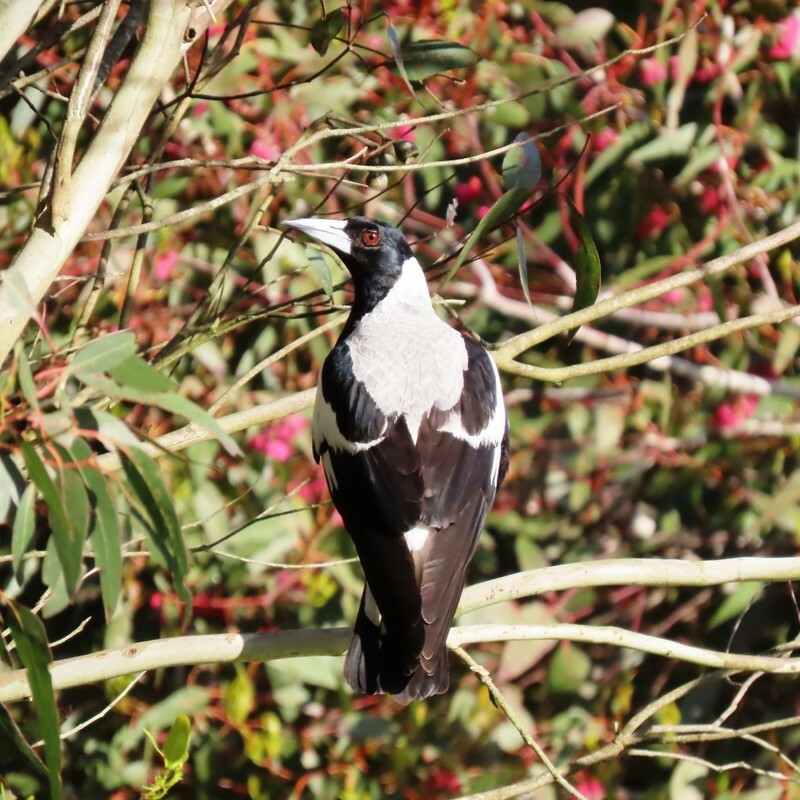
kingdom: Animalia
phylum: Chordata
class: Aves
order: Passeriformes
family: Cracticidae
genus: Gymnorhina
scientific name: Gymnorhina tibicen
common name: Australian magpie
